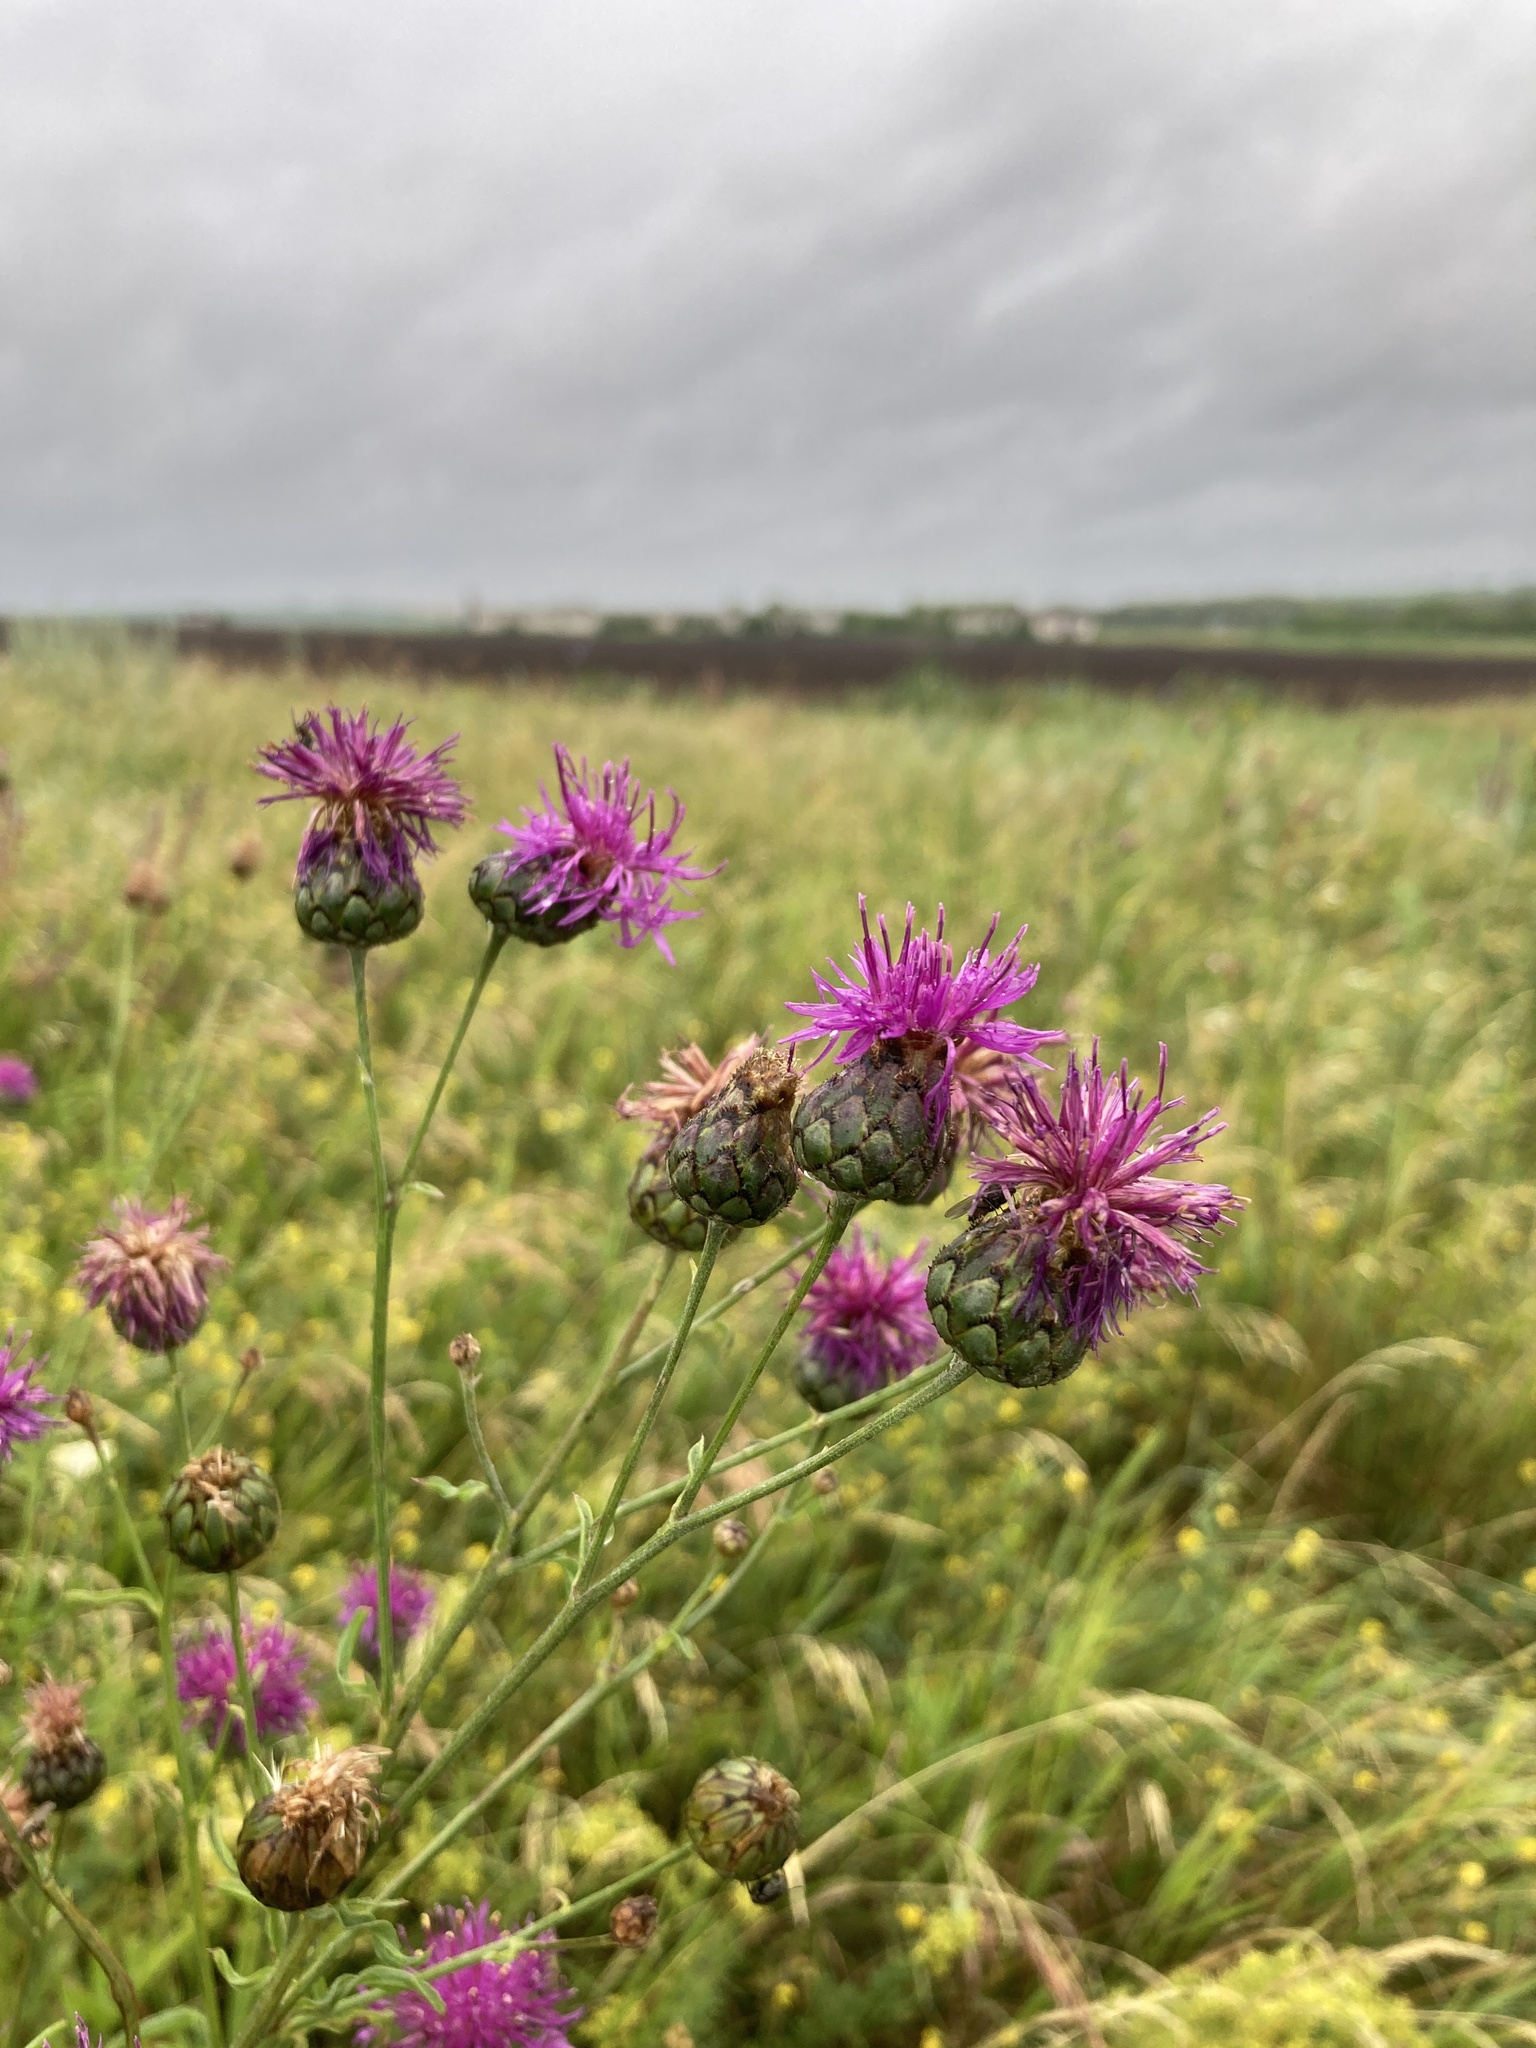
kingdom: Plantae
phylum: Tracheophyta
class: Magnoliopsida
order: Asterales
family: Asteraceae
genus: Centaurea
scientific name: Centaurea scabiosa
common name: Greater knapweed
